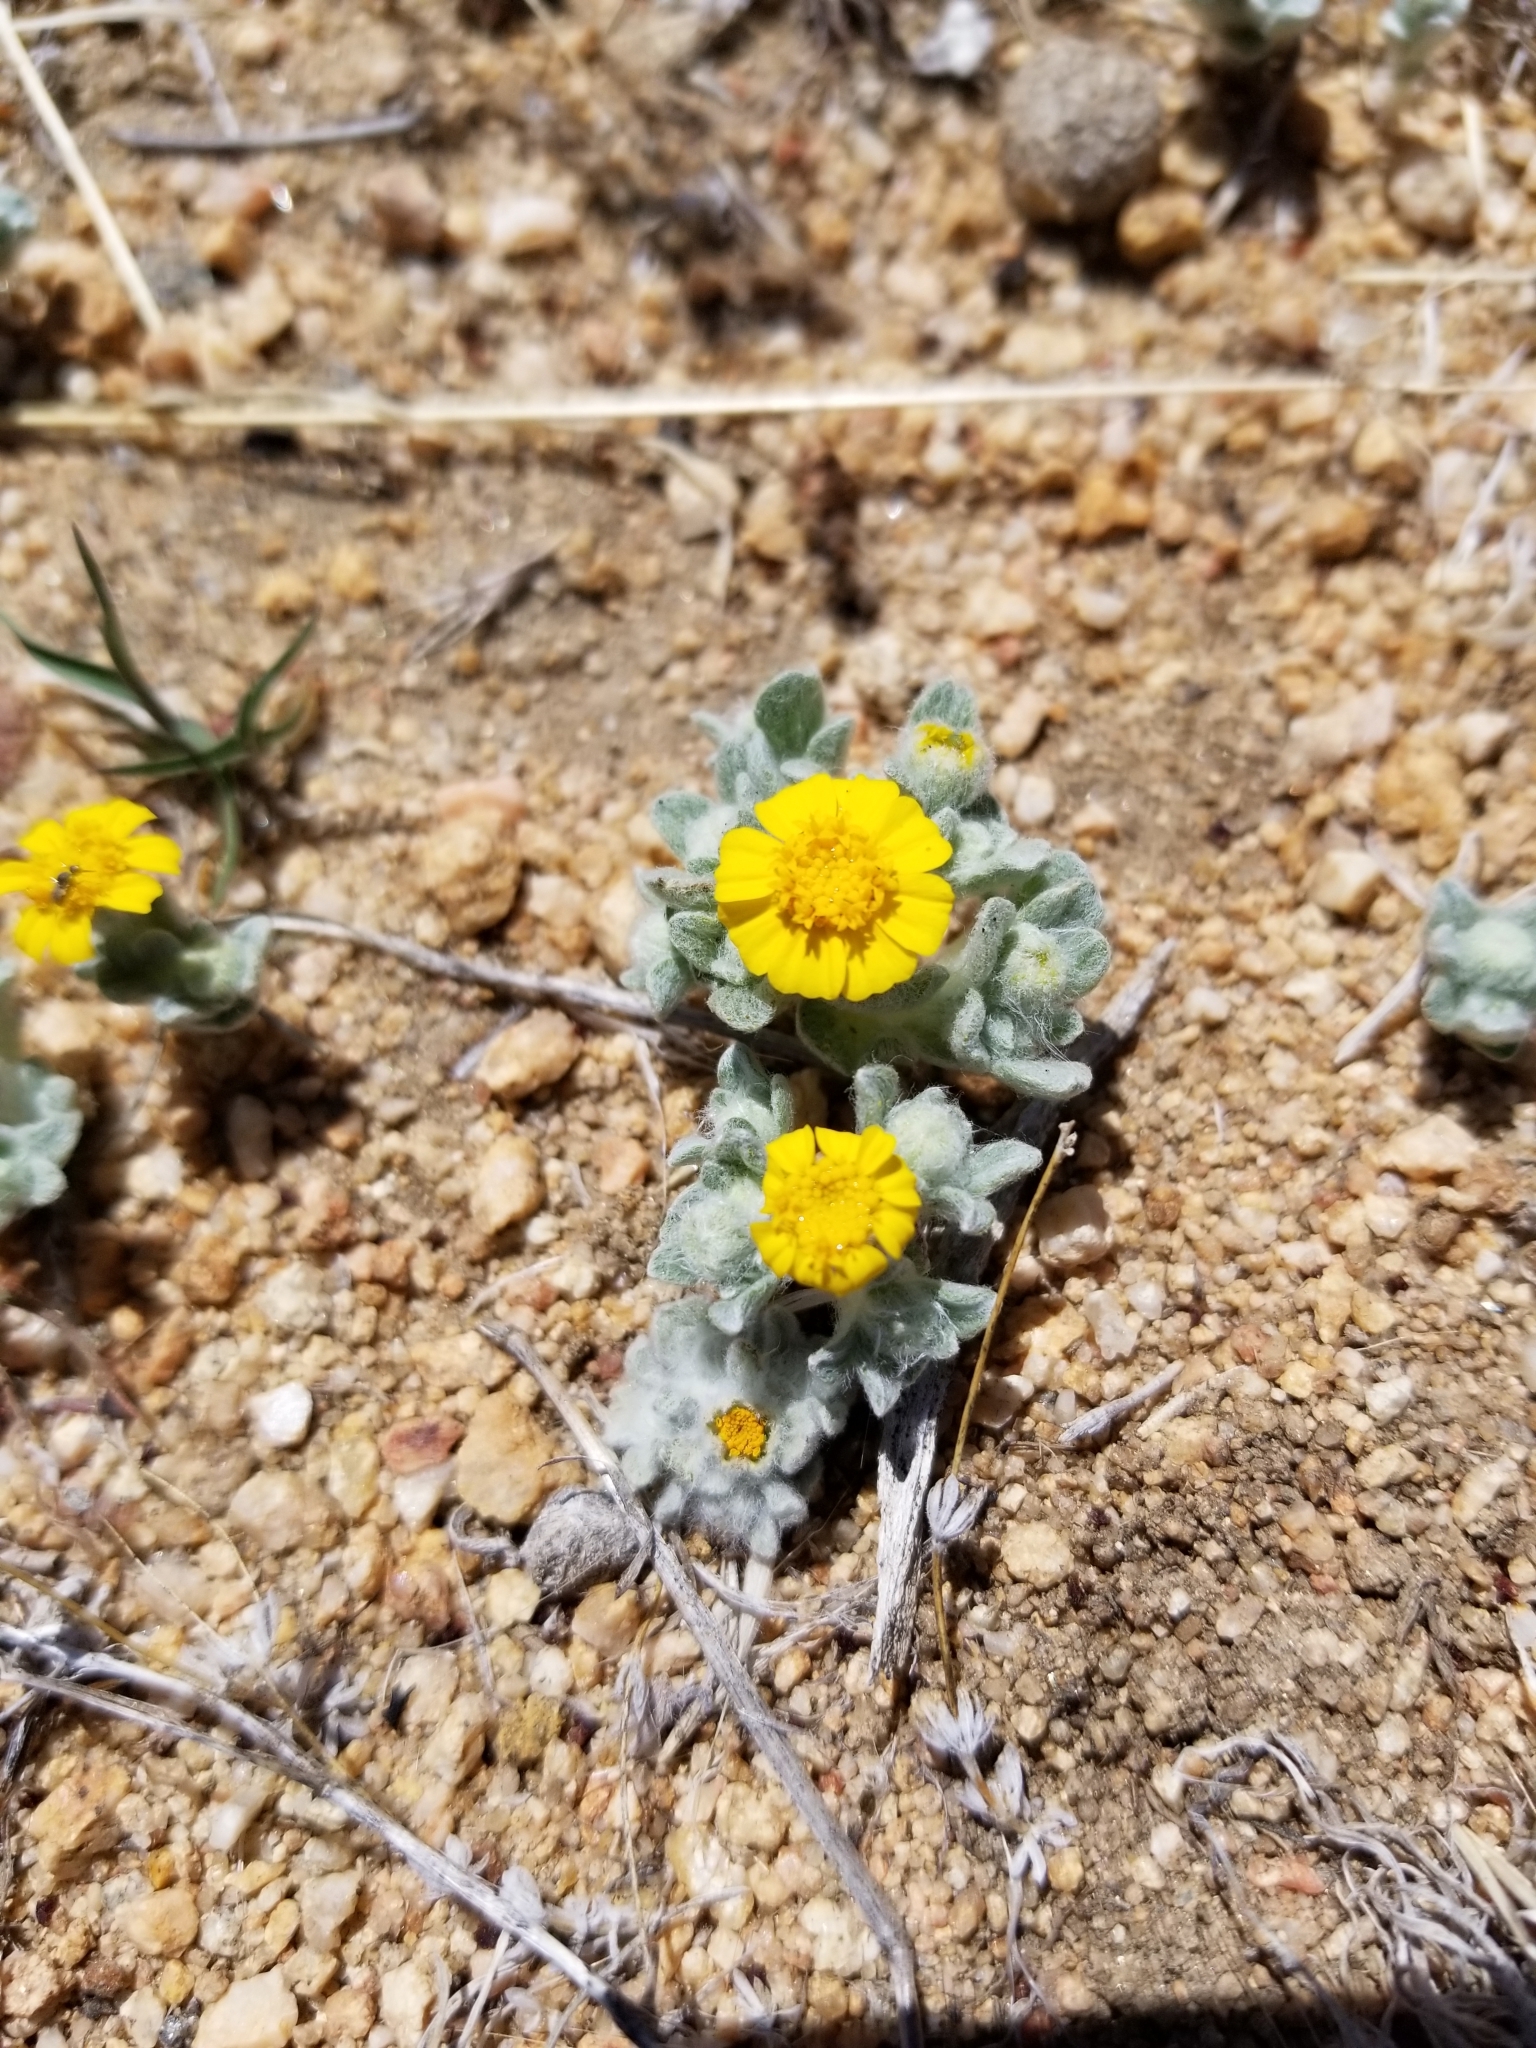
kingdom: Plantae
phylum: Tracheophyta
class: Magnoliopsida
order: Asterales
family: Asteraceae
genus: Eriophyllum
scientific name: Eriophyllum wallacei
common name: Wallace's woolly daisy
